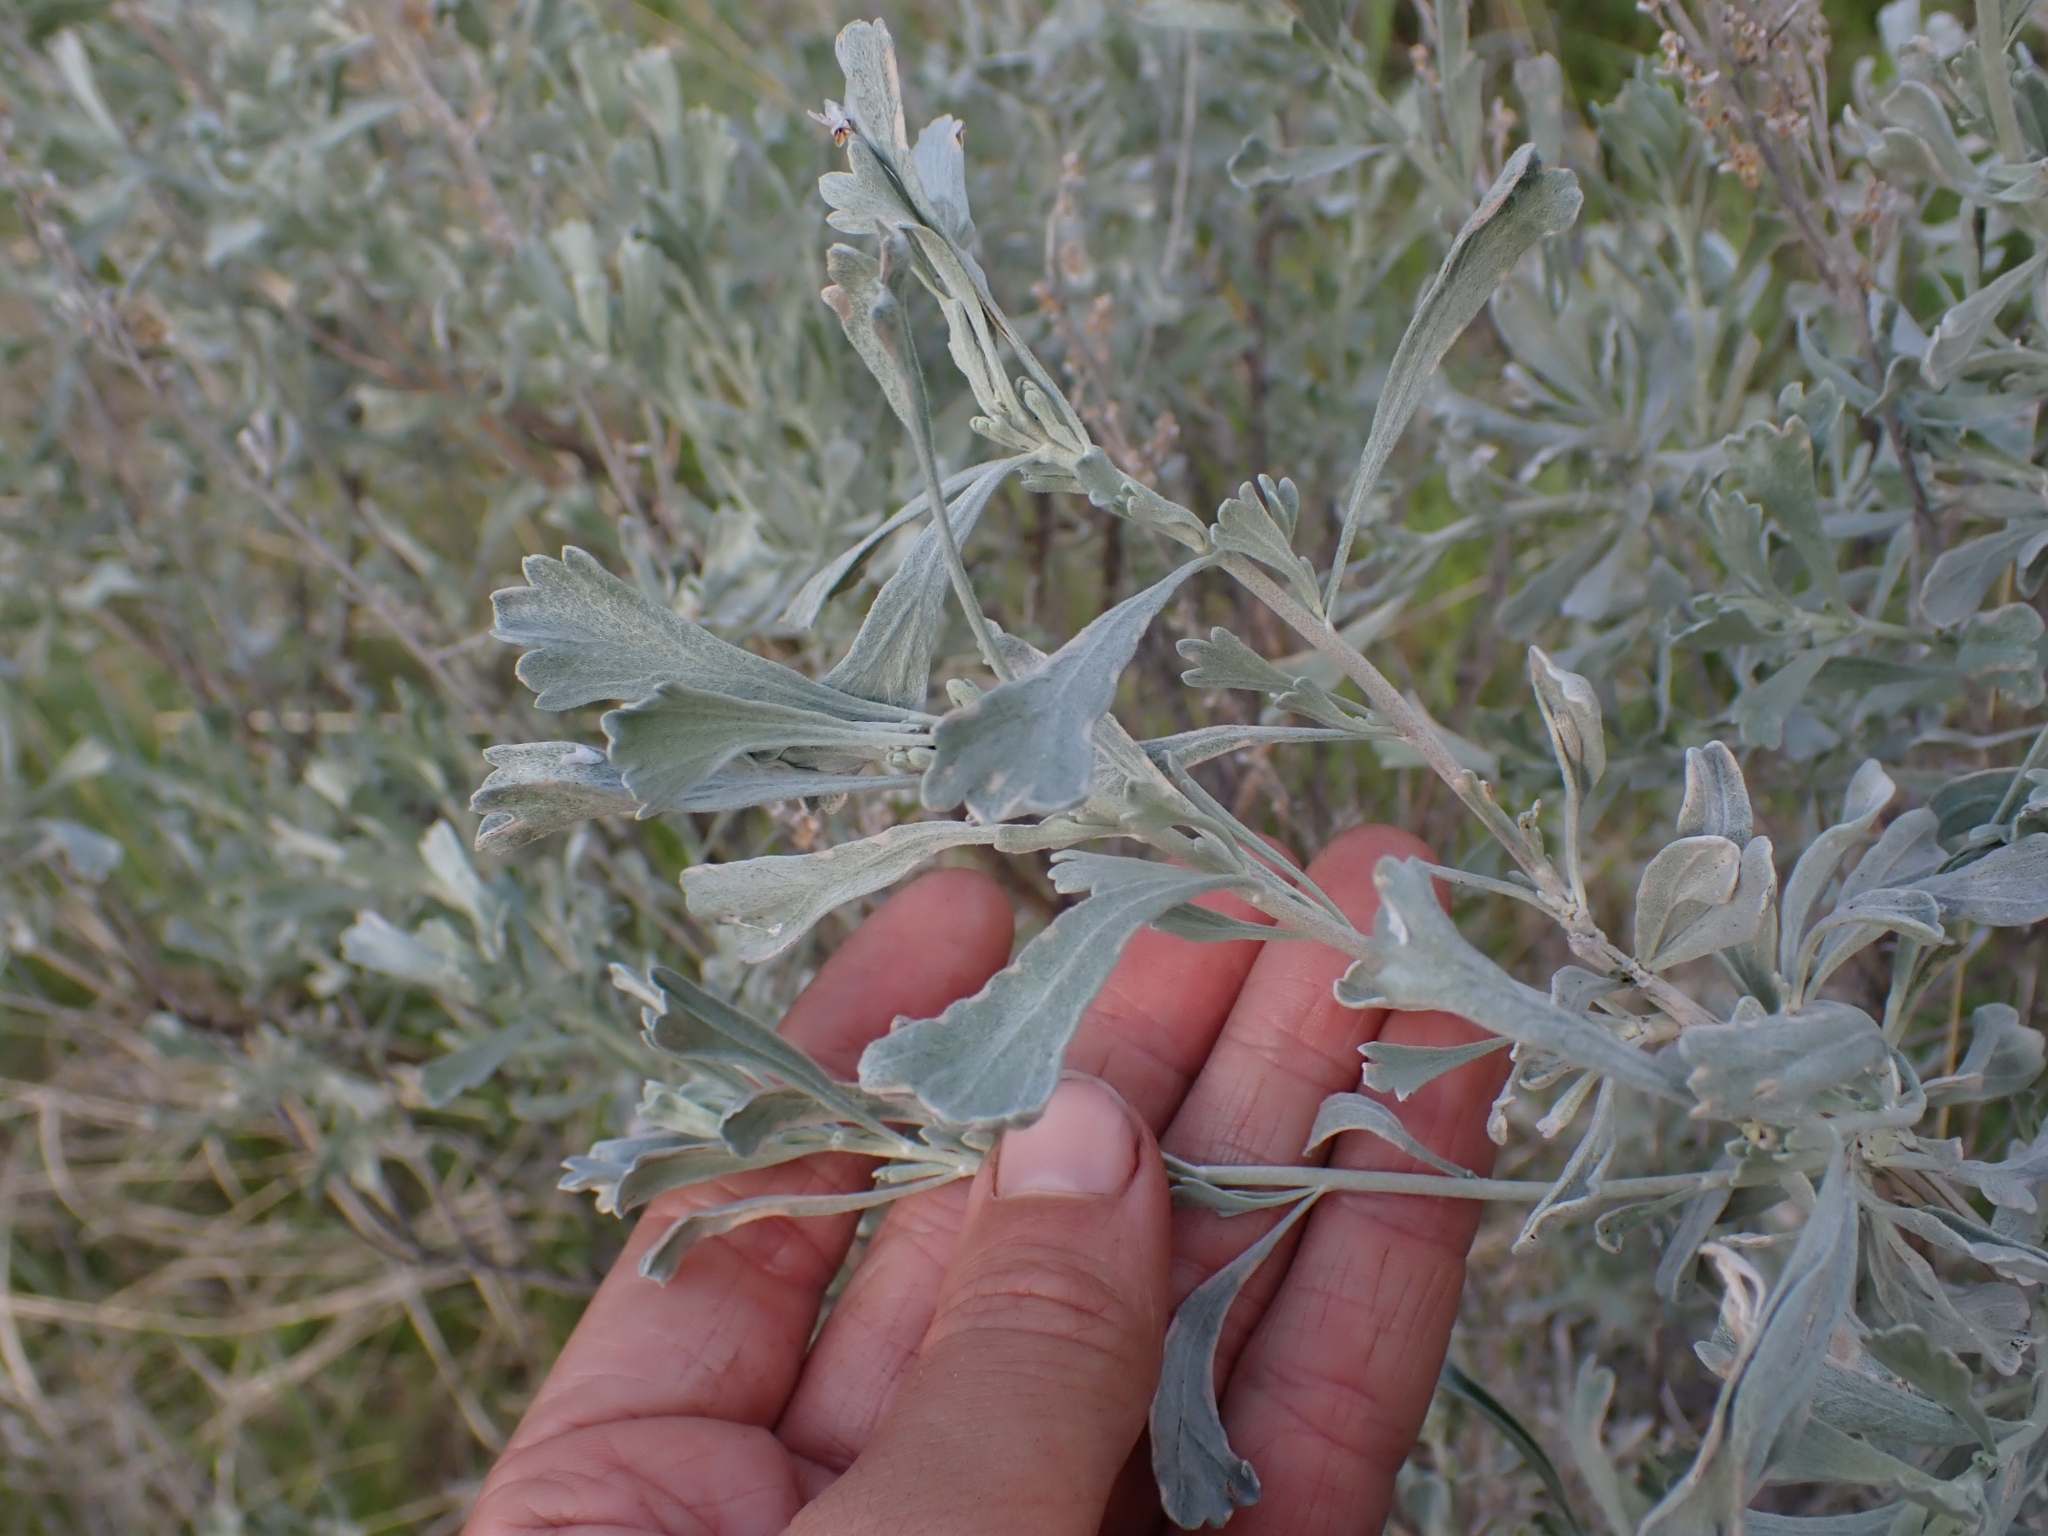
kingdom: Plantae
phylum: Tracheophyta
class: Magnoliopsida
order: Asterales
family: Asteraceae
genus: Artemisia
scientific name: Artemisia tridentata
